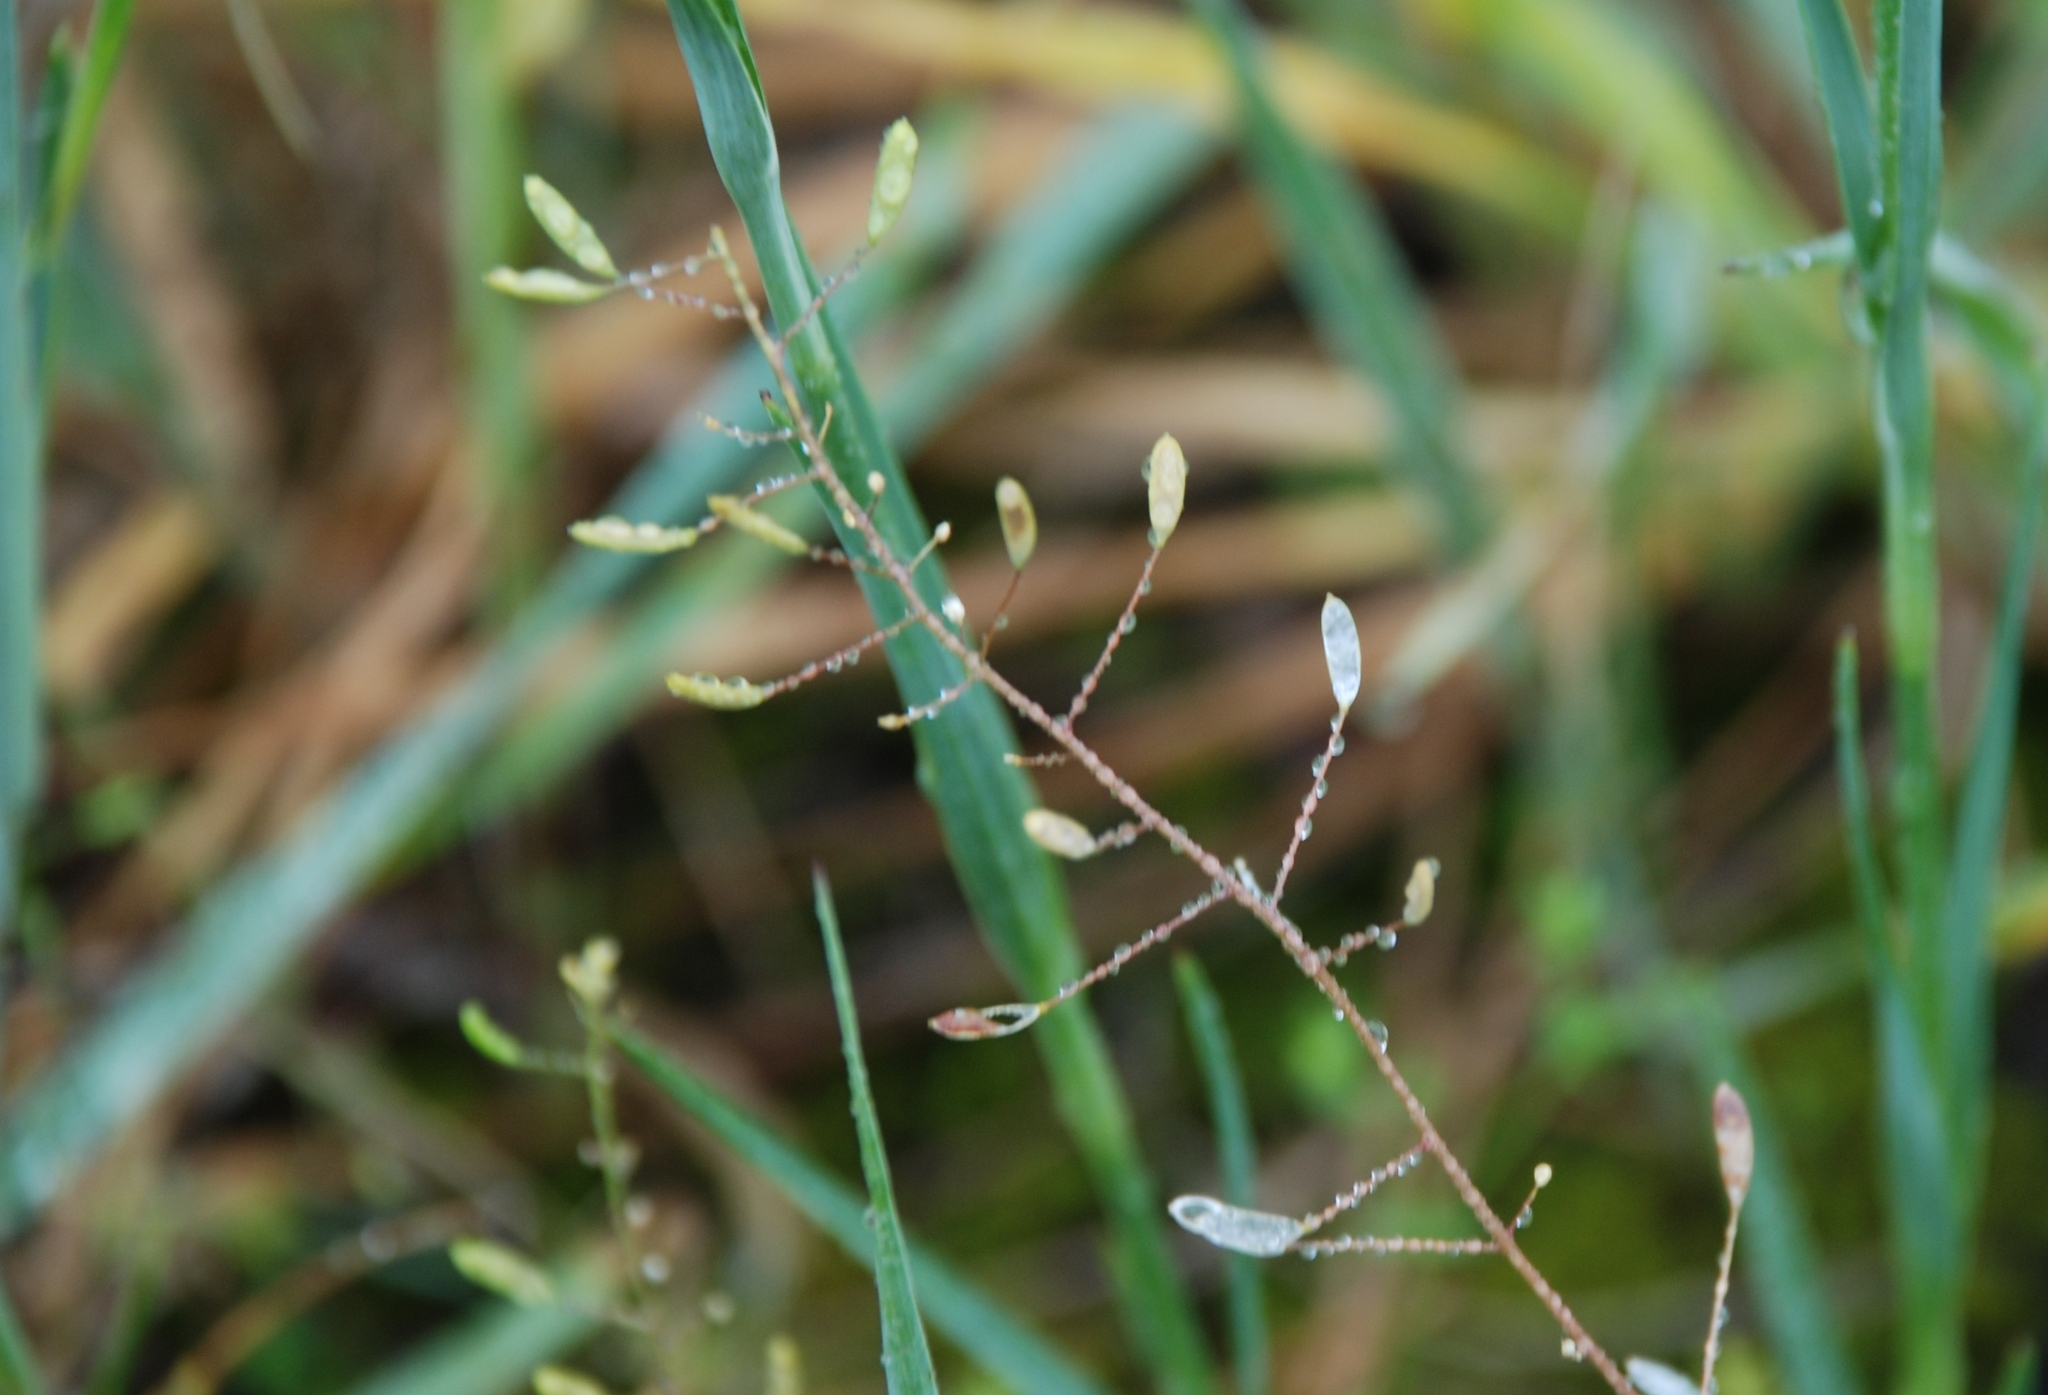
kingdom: Plantae
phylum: Tracheophyta
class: Magnoliopsida
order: Brassicales
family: Brassicaceae
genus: Draba
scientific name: Draba nemorosa
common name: Wood whitlow-grass
